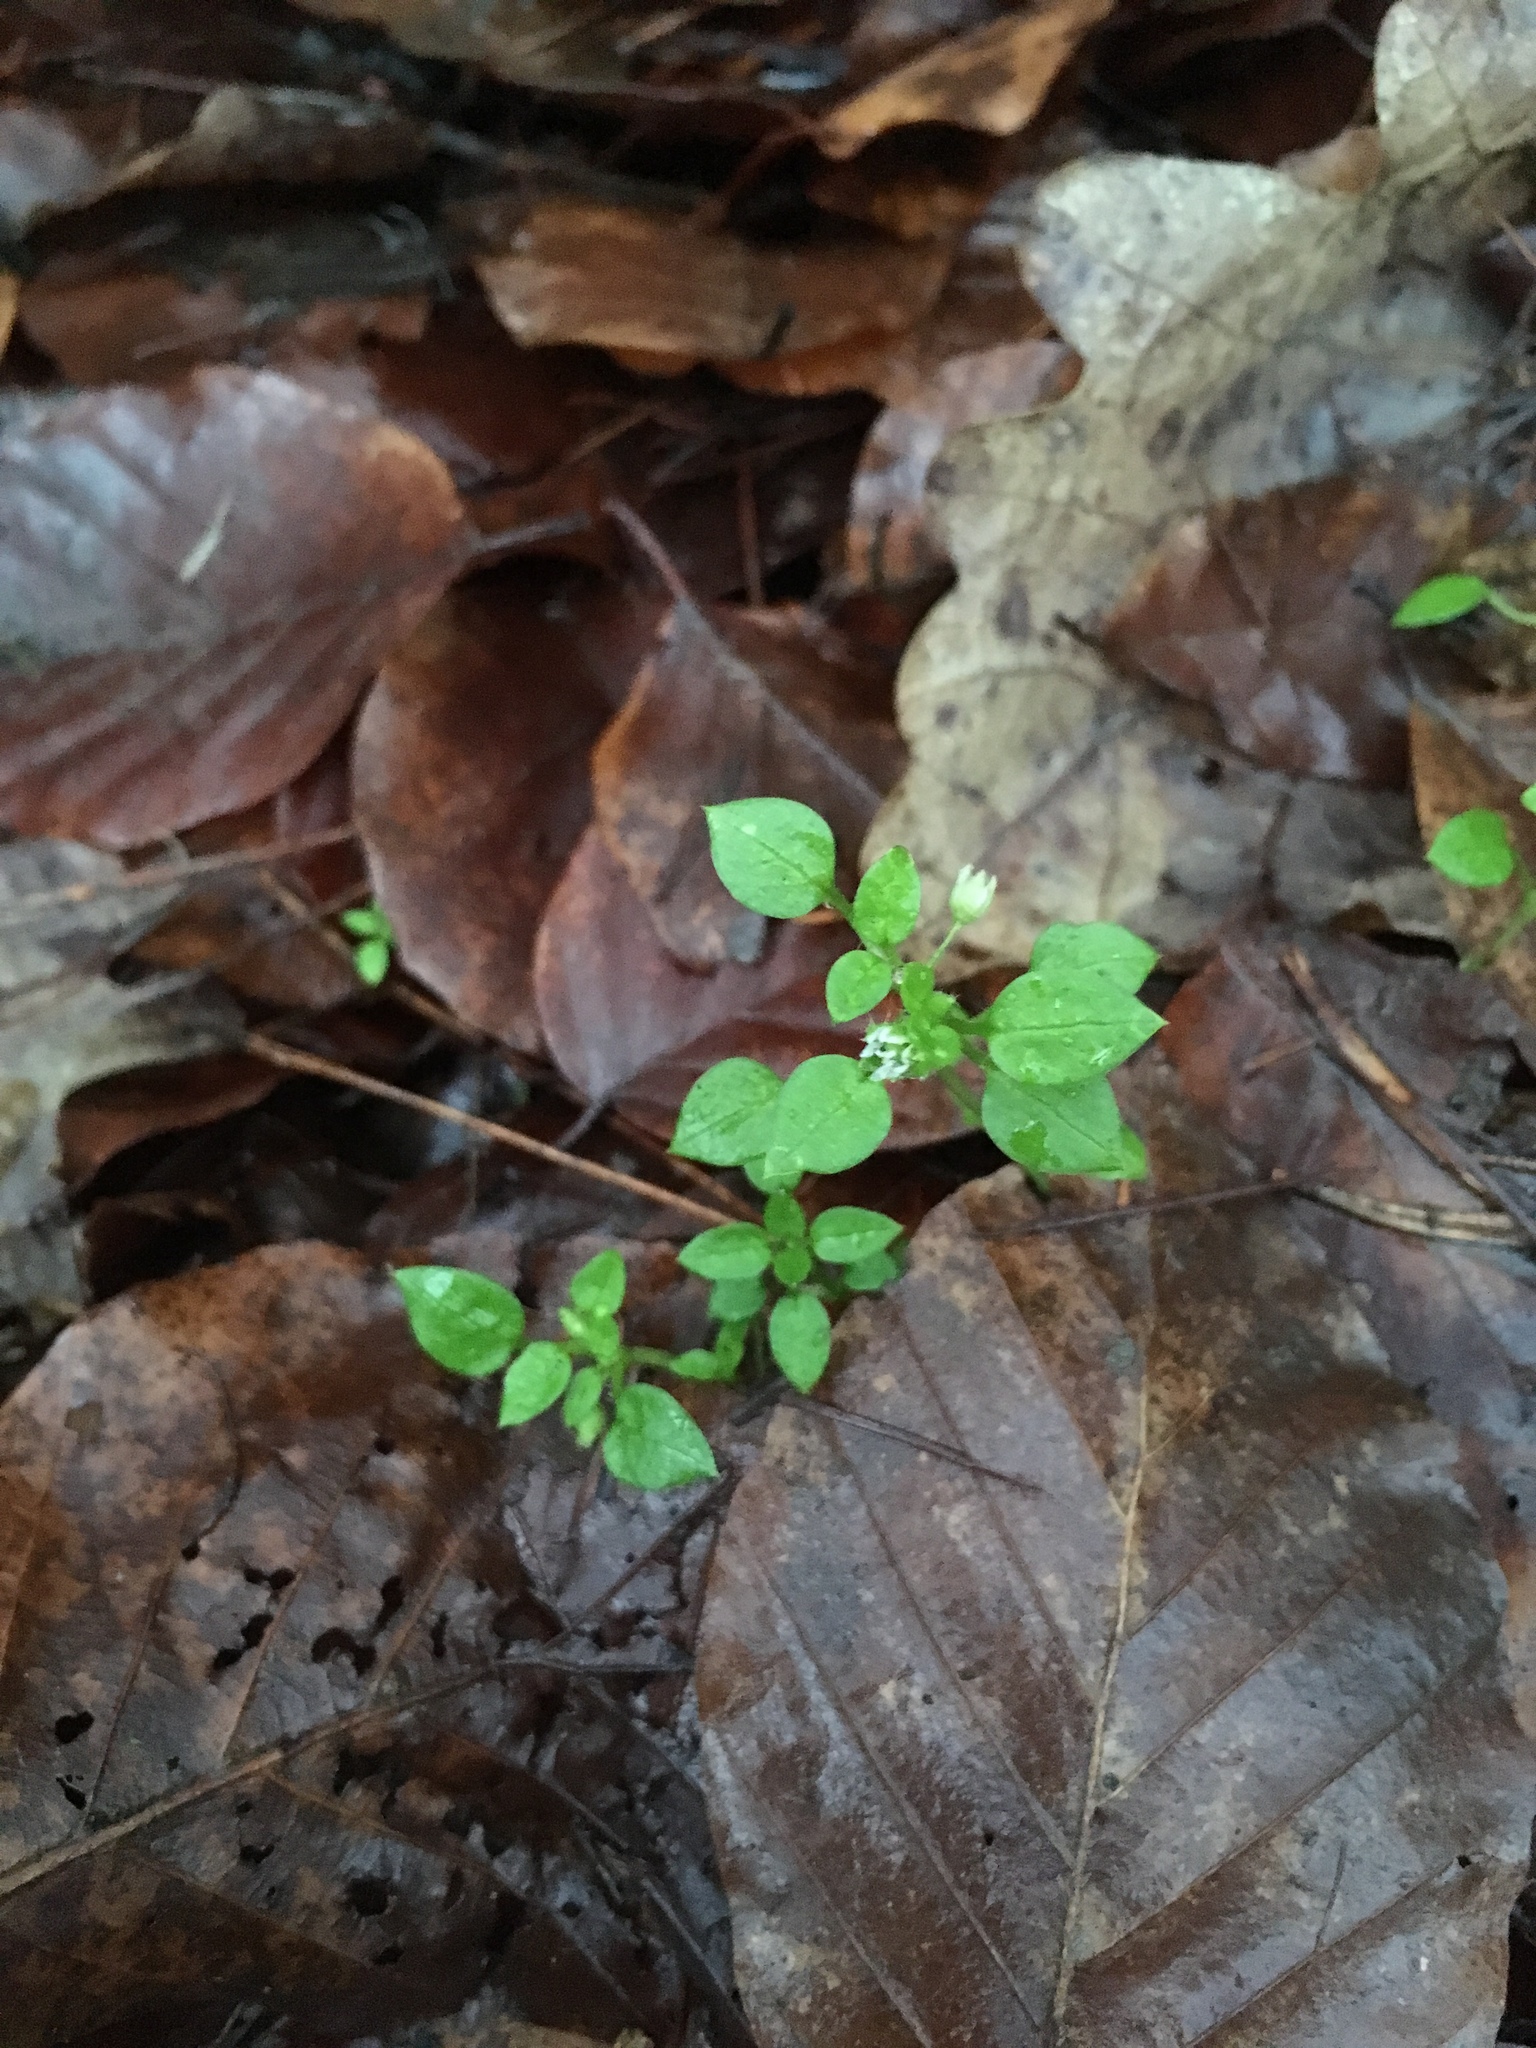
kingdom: Plantae
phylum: Tracheophyta
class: Magnoliopsida
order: Caryophyllales
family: Caryophyllaceae
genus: Stellaria
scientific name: Stellaria media
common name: Common chickweed
